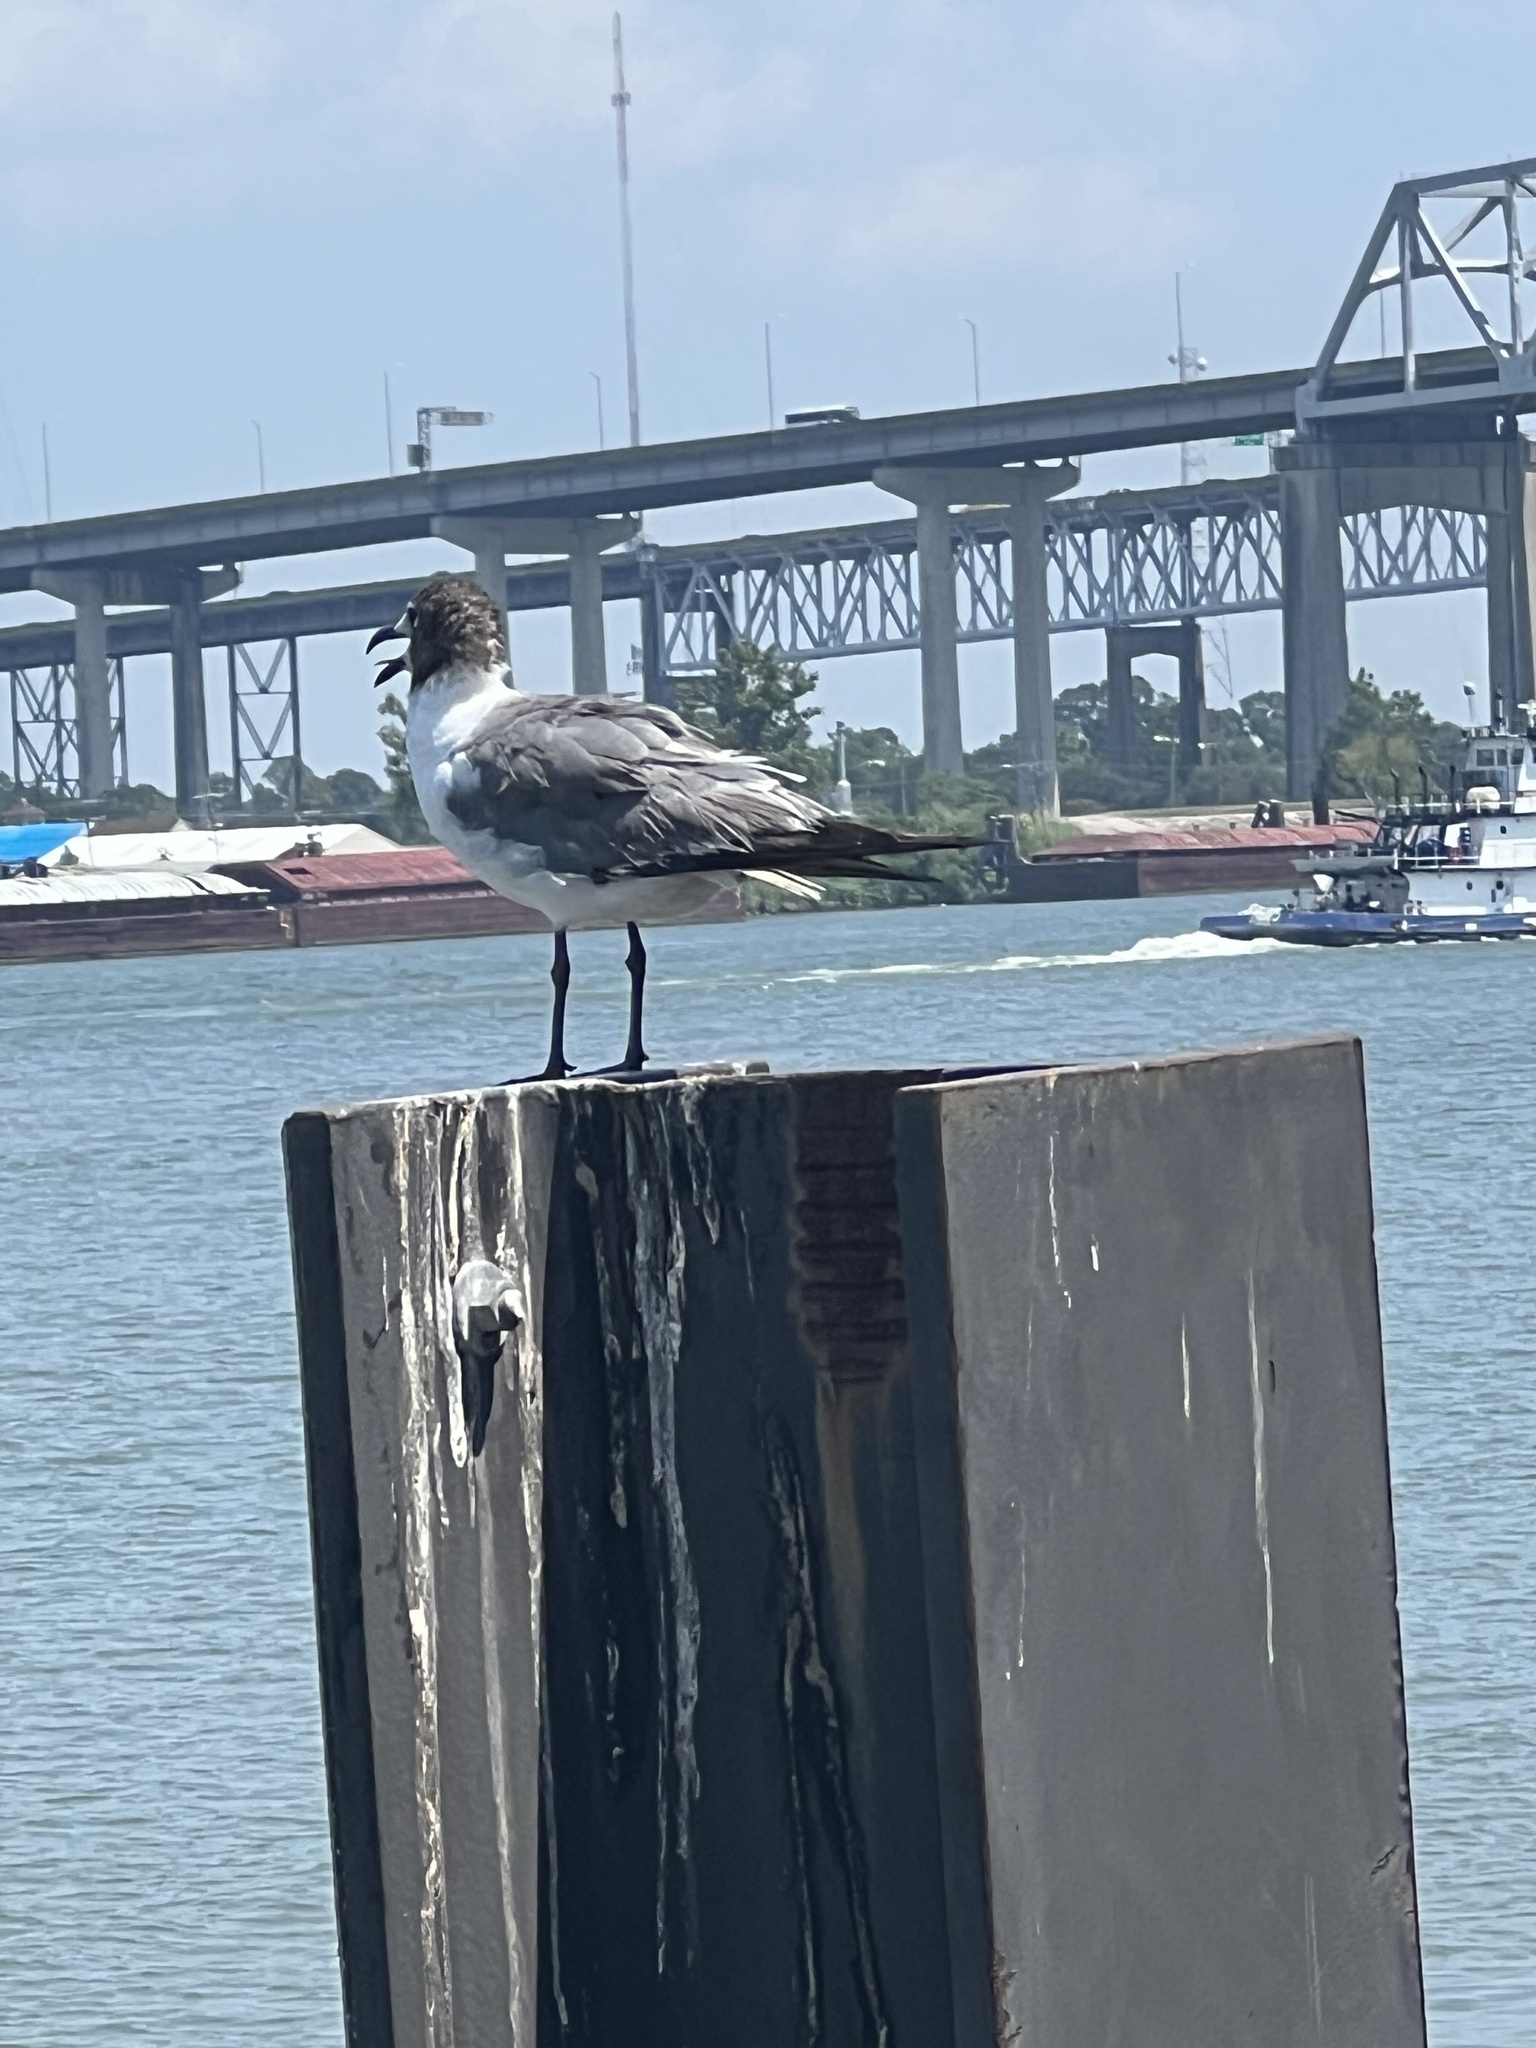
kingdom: Animalia
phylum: Chordata
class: Aves
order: Charadriiformes
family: Laridae
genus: Leucophaeus
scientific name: Leucophaeus atricilla
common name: Laughing gull
